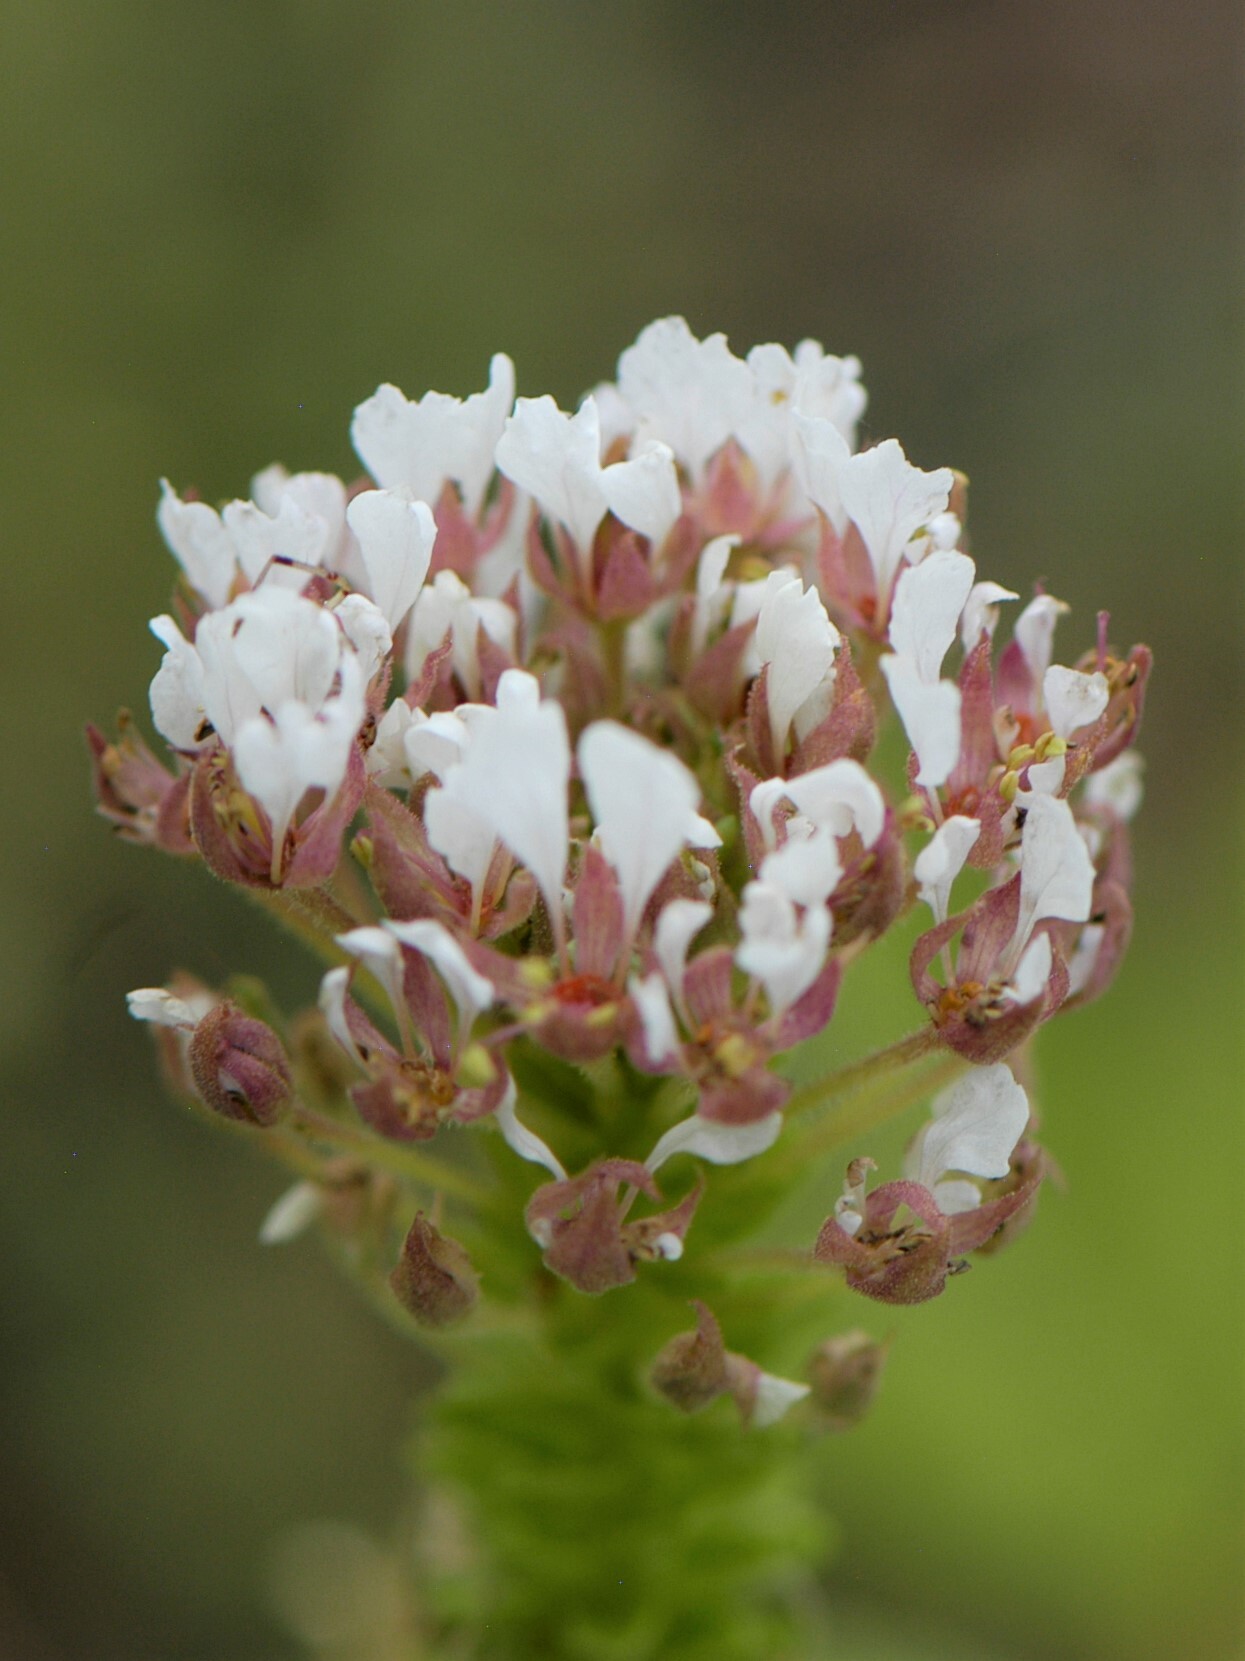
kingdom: Plantae
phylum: Tracheophyta
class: Magnoliopsida
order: Brassicales
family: Cleomaceae
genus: Polanisia
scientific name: Polanisia dodecandra
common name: Clammyweed
